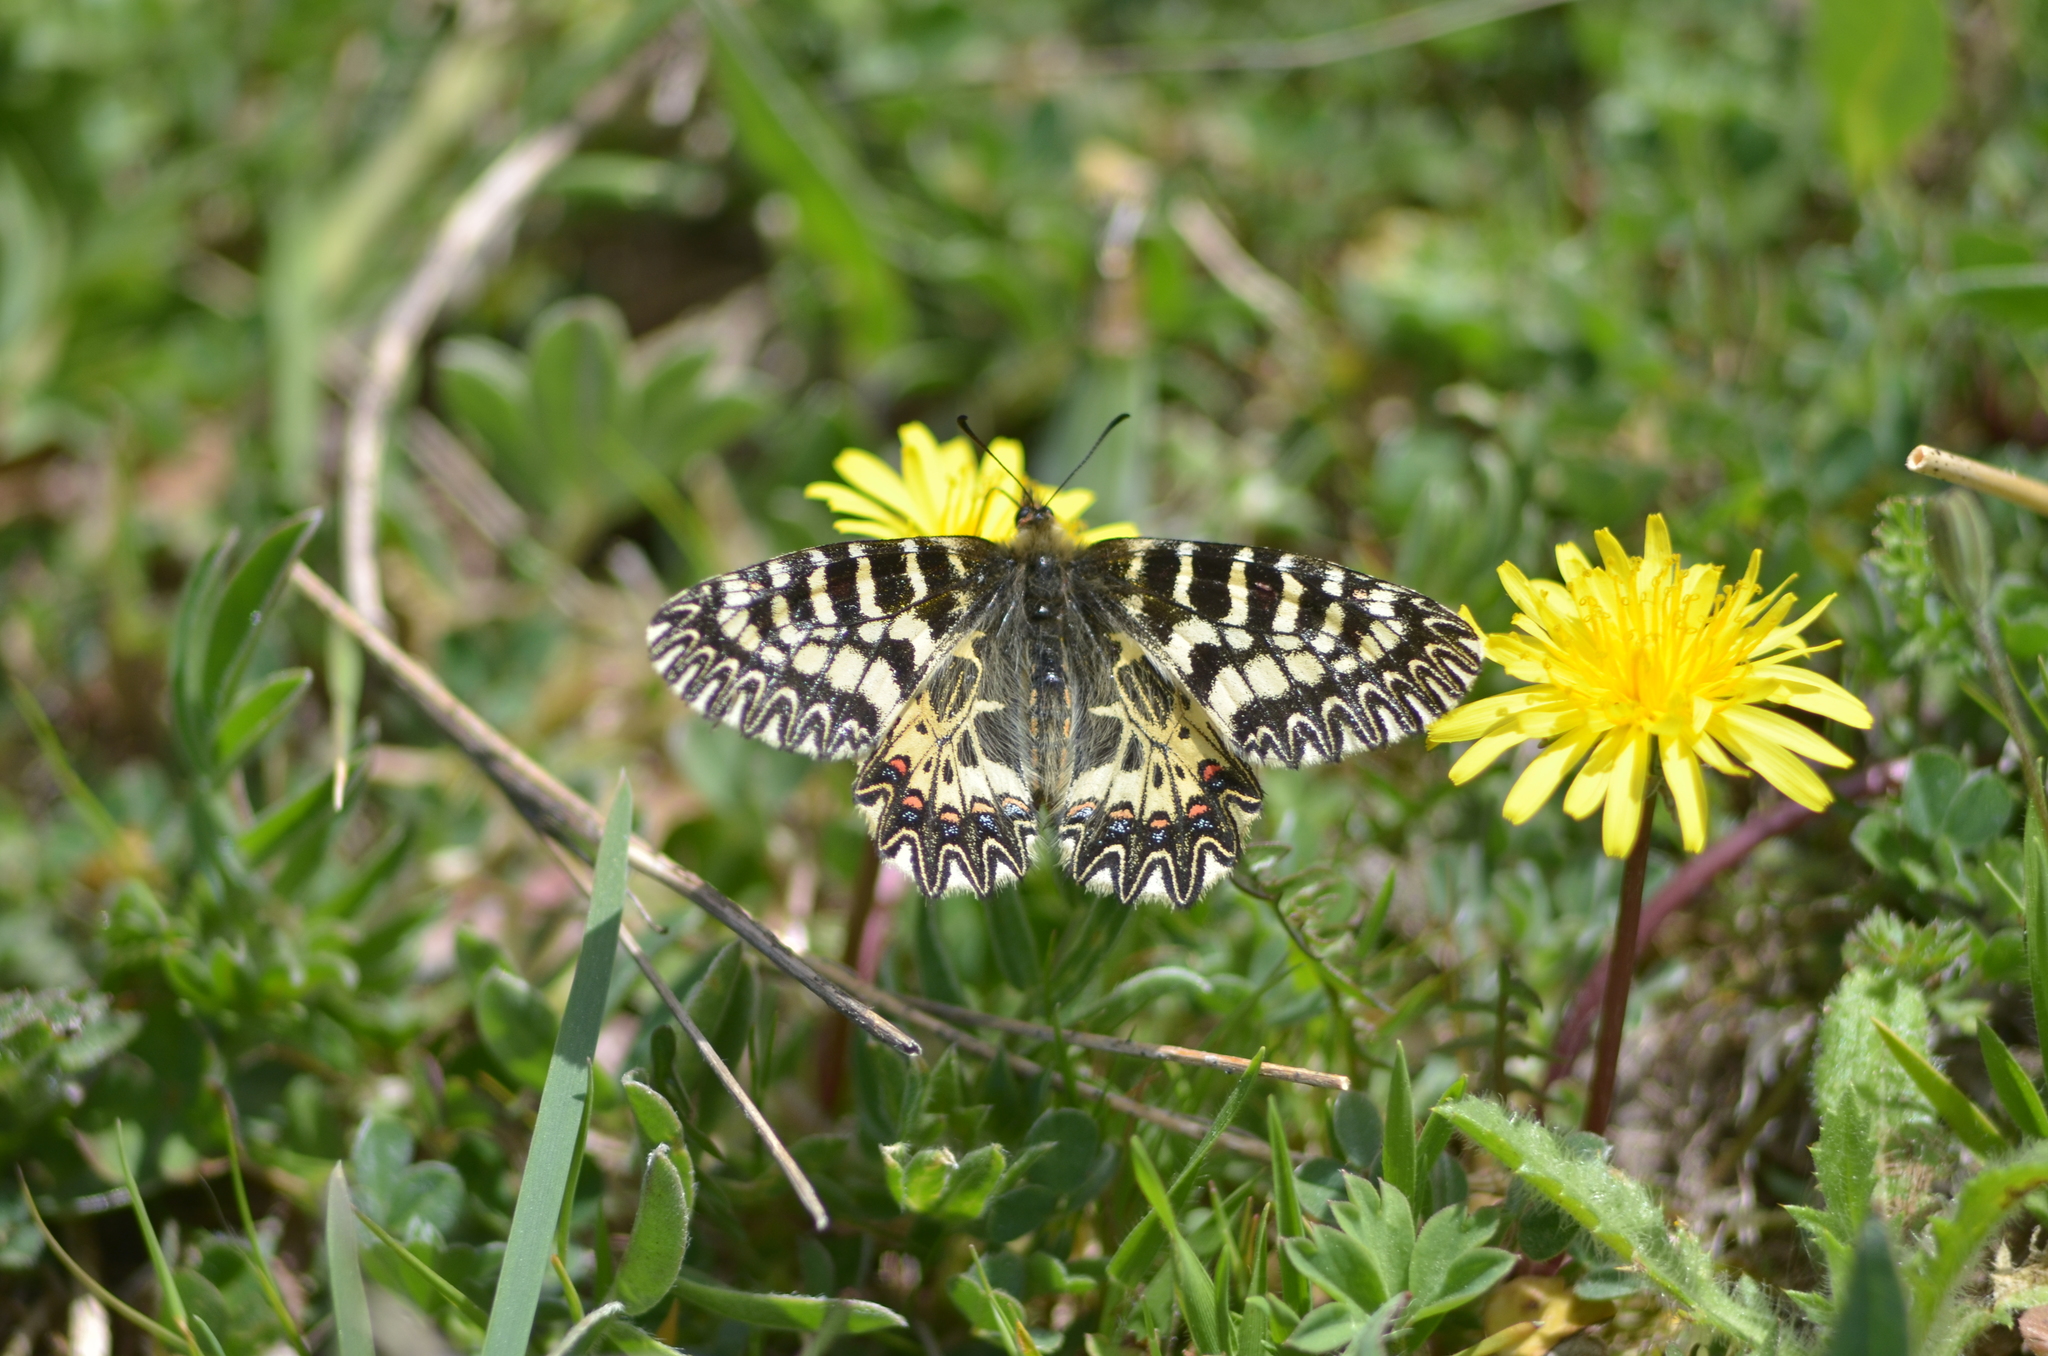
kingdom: Animalia
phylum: Arthropoda
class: Insecta
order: Lepidoptera
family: Papilionidae
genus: Zerynthia
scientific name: Zerynthia cassandra
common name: Italian festoon
